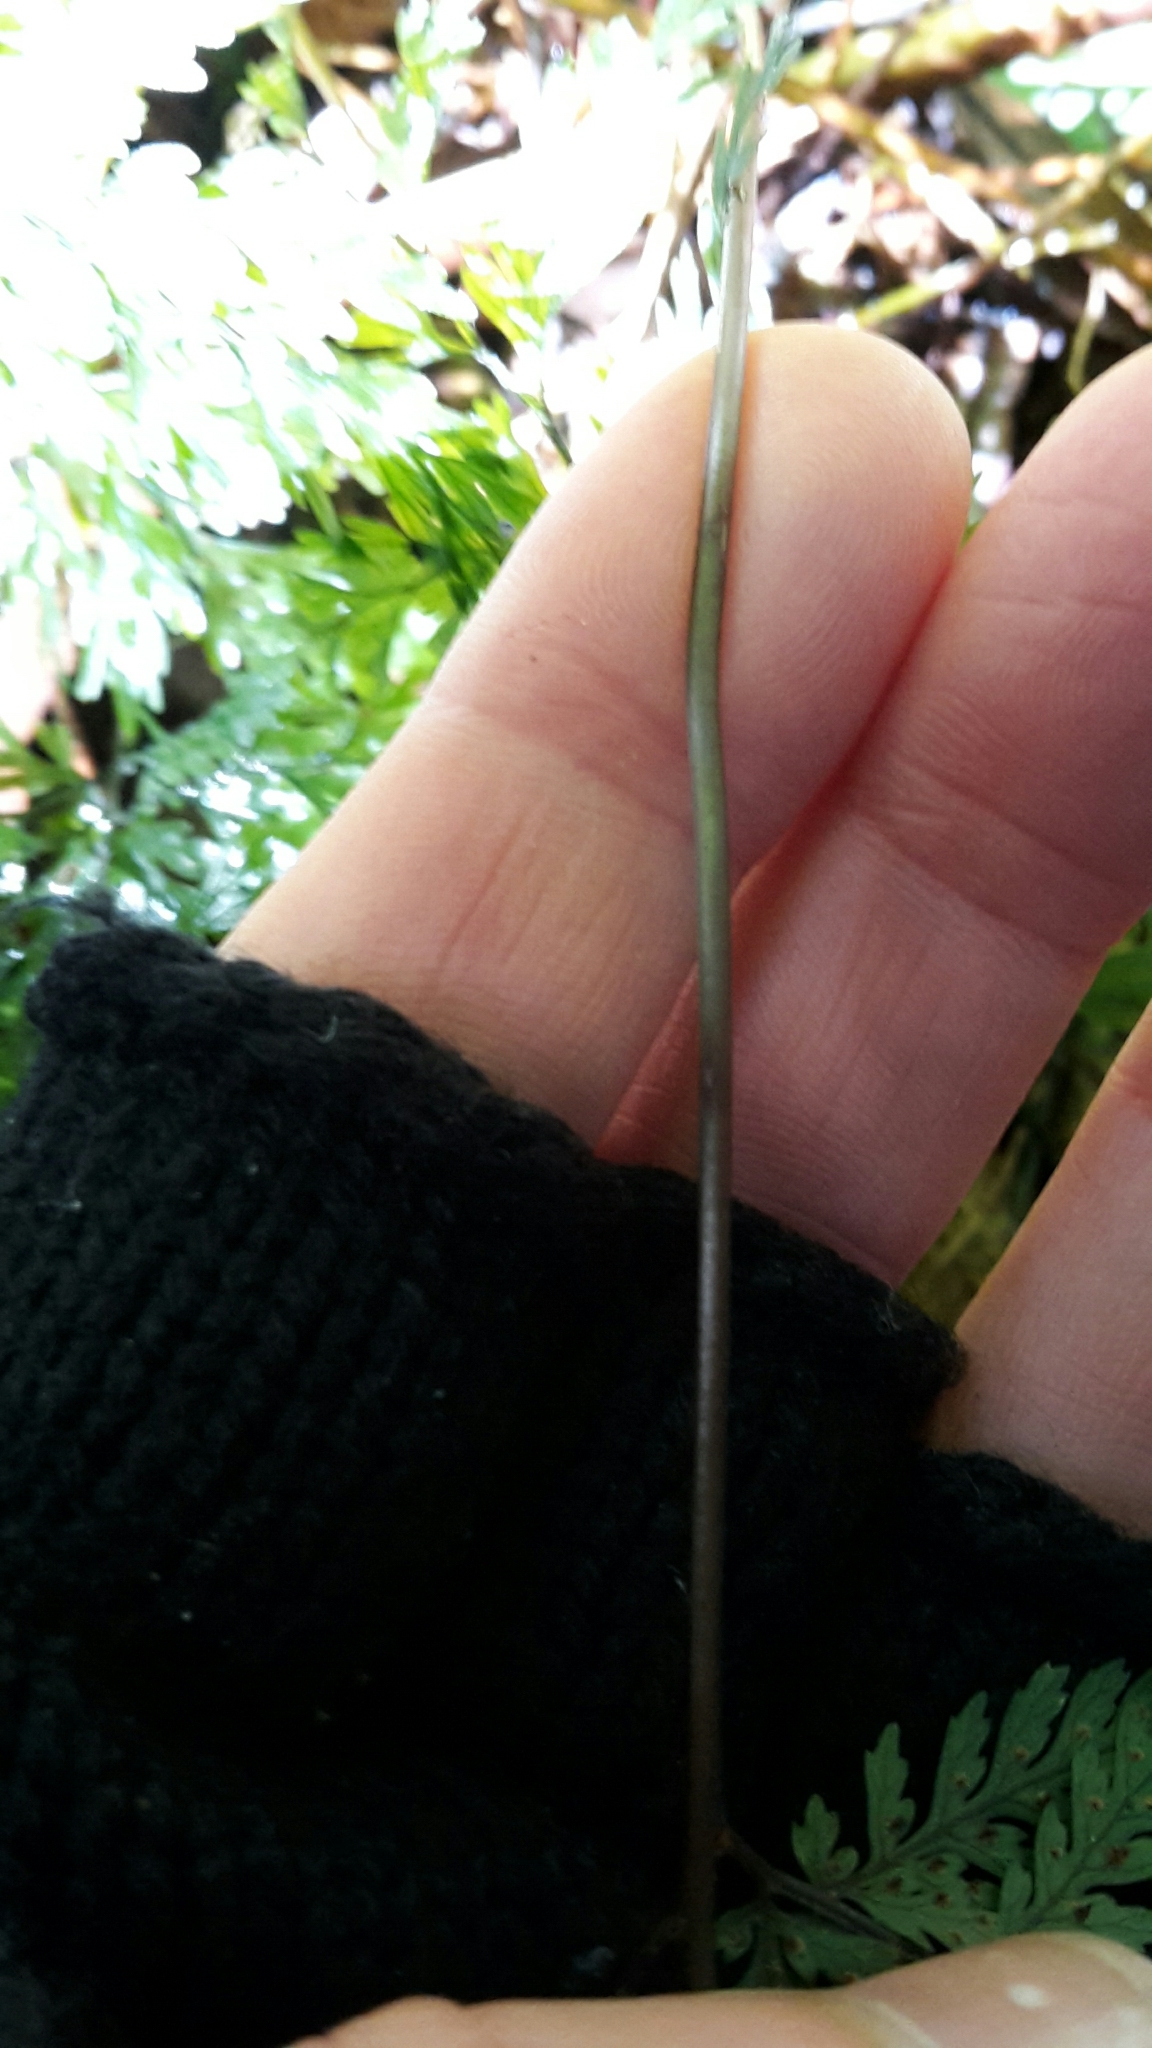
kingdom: Plantae
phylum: Tracheophyta
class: Polypodiopsida
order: Polypodiales
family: Dryopteridaceae
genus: Parapolystichum
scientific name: Parapolystichum glabellum
